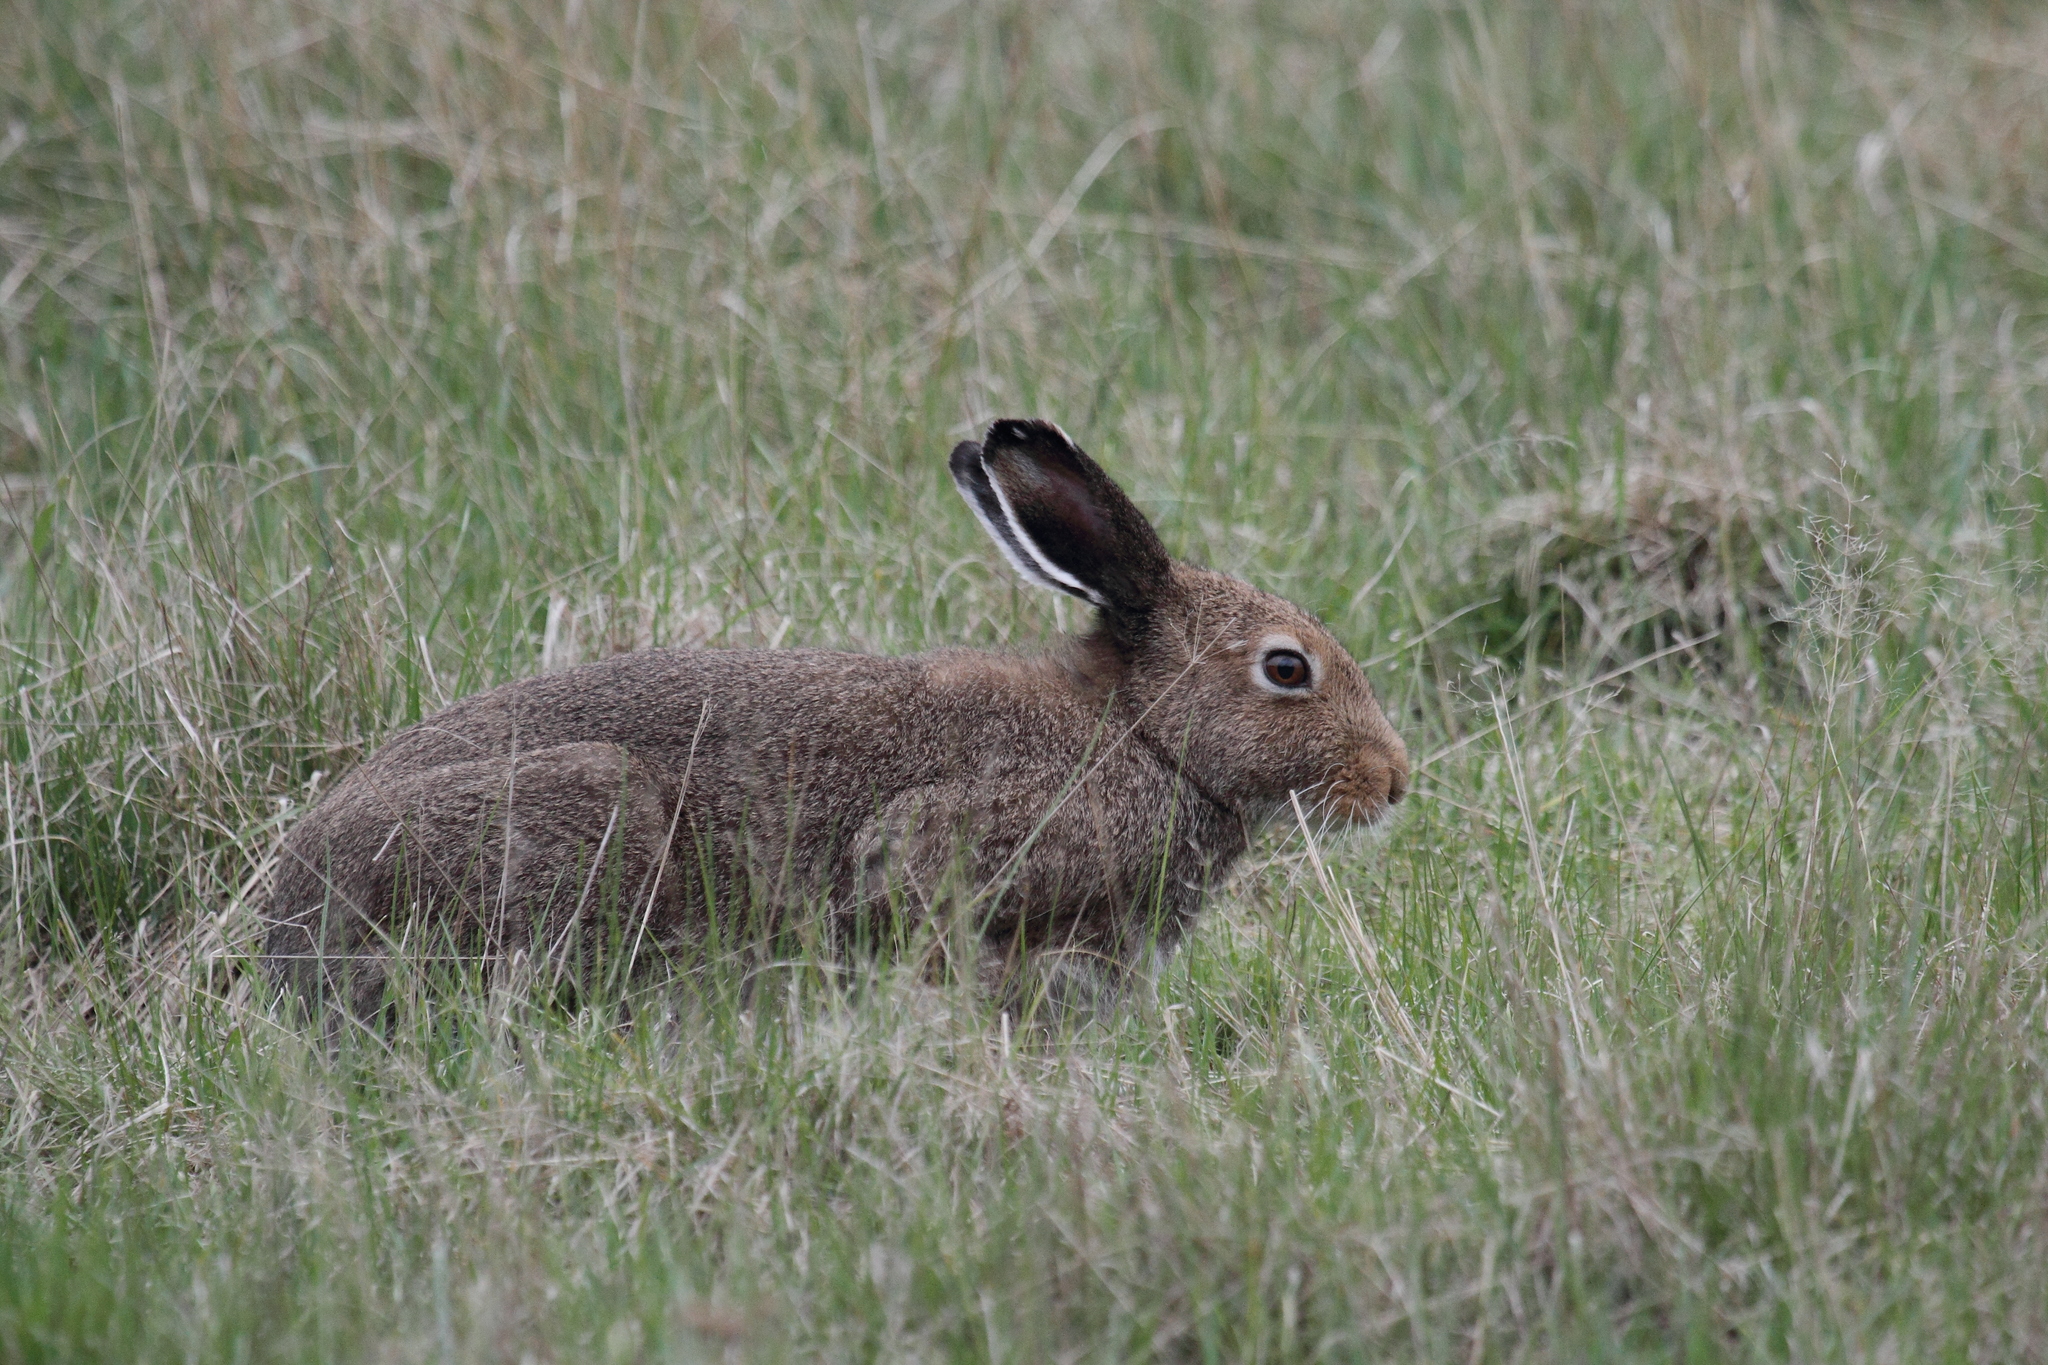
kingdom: Animalia
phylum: Chordata
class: Mammalia
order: Lagomorpha
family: Leporidae
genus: Lepus
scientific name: Lepus timidus
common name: Mountain hare
